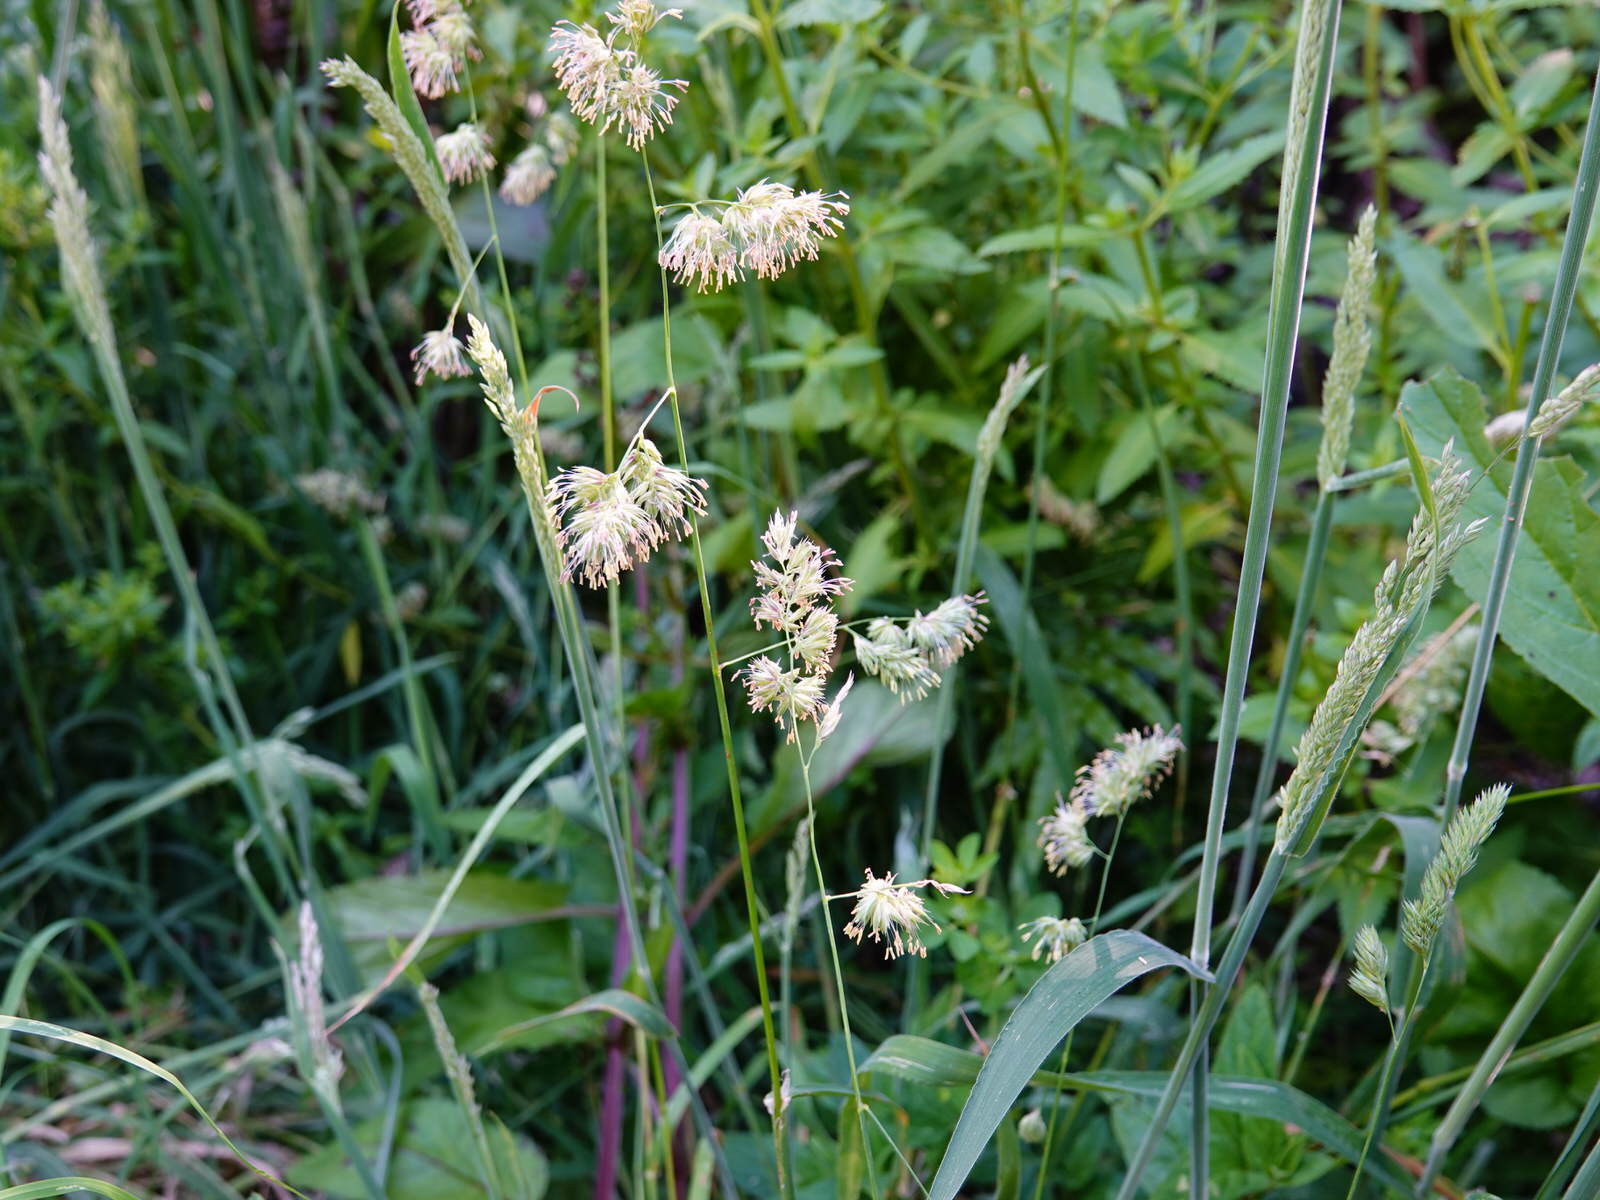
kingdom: Plantae
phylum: Tracheophyta
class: Liliopsida
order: Poales
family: Poaceae
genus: Dactylis
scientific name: Dactylis glomerata
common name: Orchardgrass
